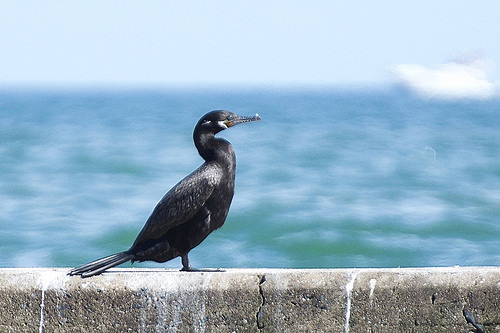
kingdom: Animalia
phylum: Chordata
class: Aves
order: Suliformes
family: Phalacrocoracidae
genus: Phalacrocorax
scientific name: Phalacrocorax brasilianus
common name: Neotropic cormorant
